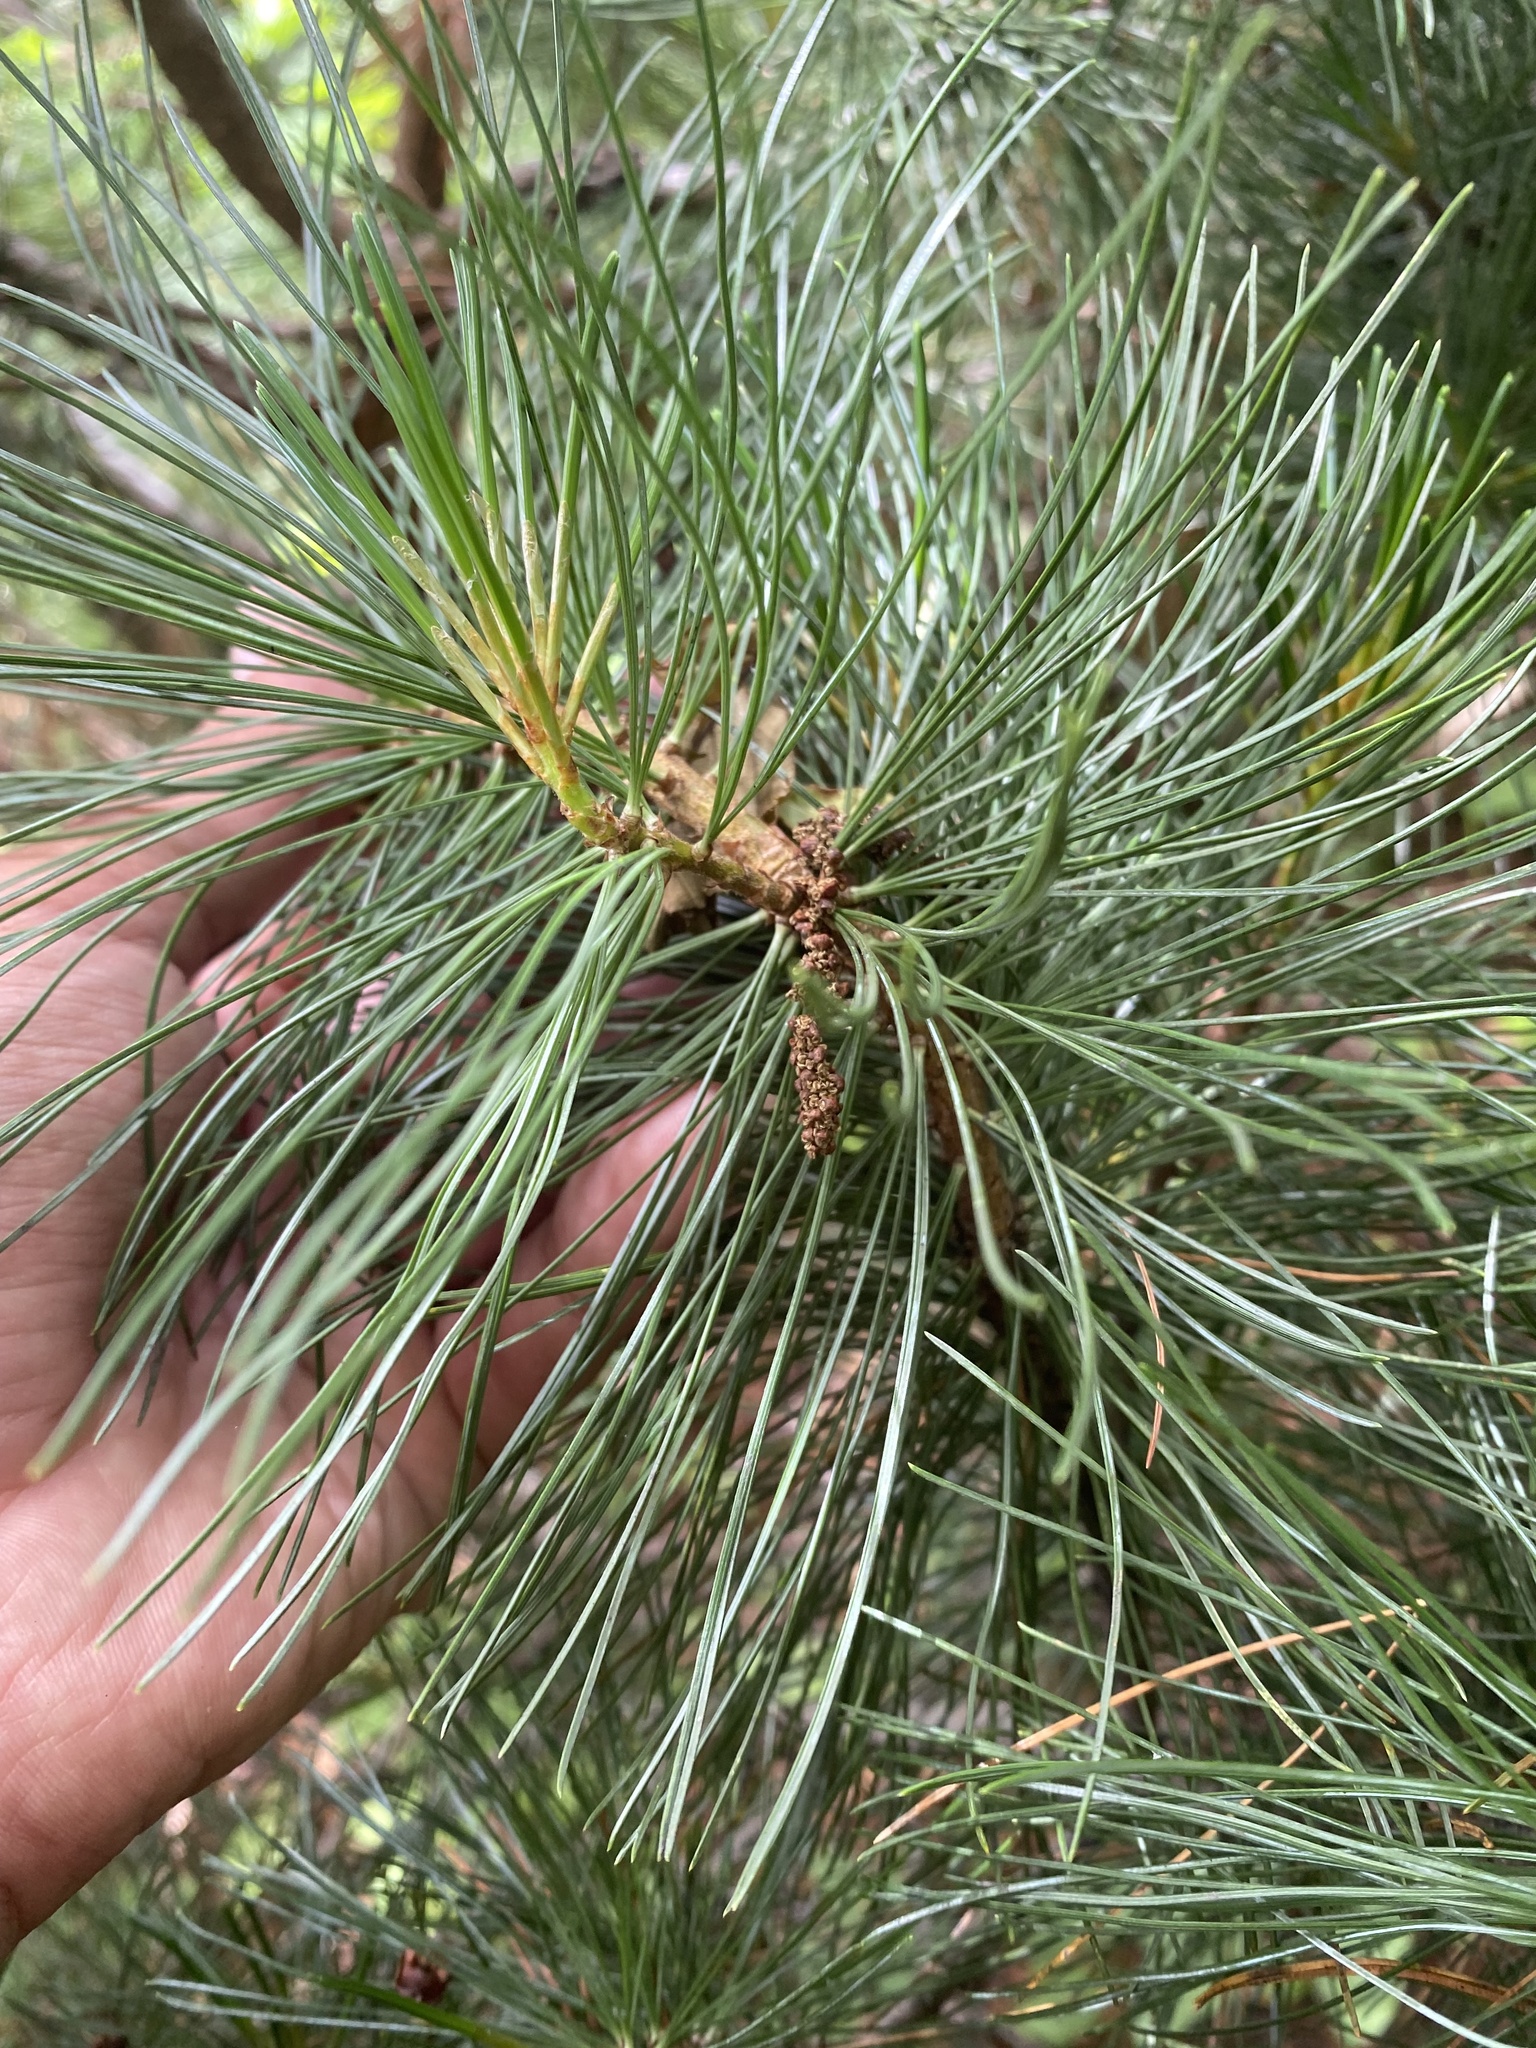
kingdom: Plantae
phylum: Tracheophyta
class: Pinopsida
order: Pinales
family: Pinaceae
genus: Pinus
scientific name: Pinus pumila
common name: Dwarf siberian pine
